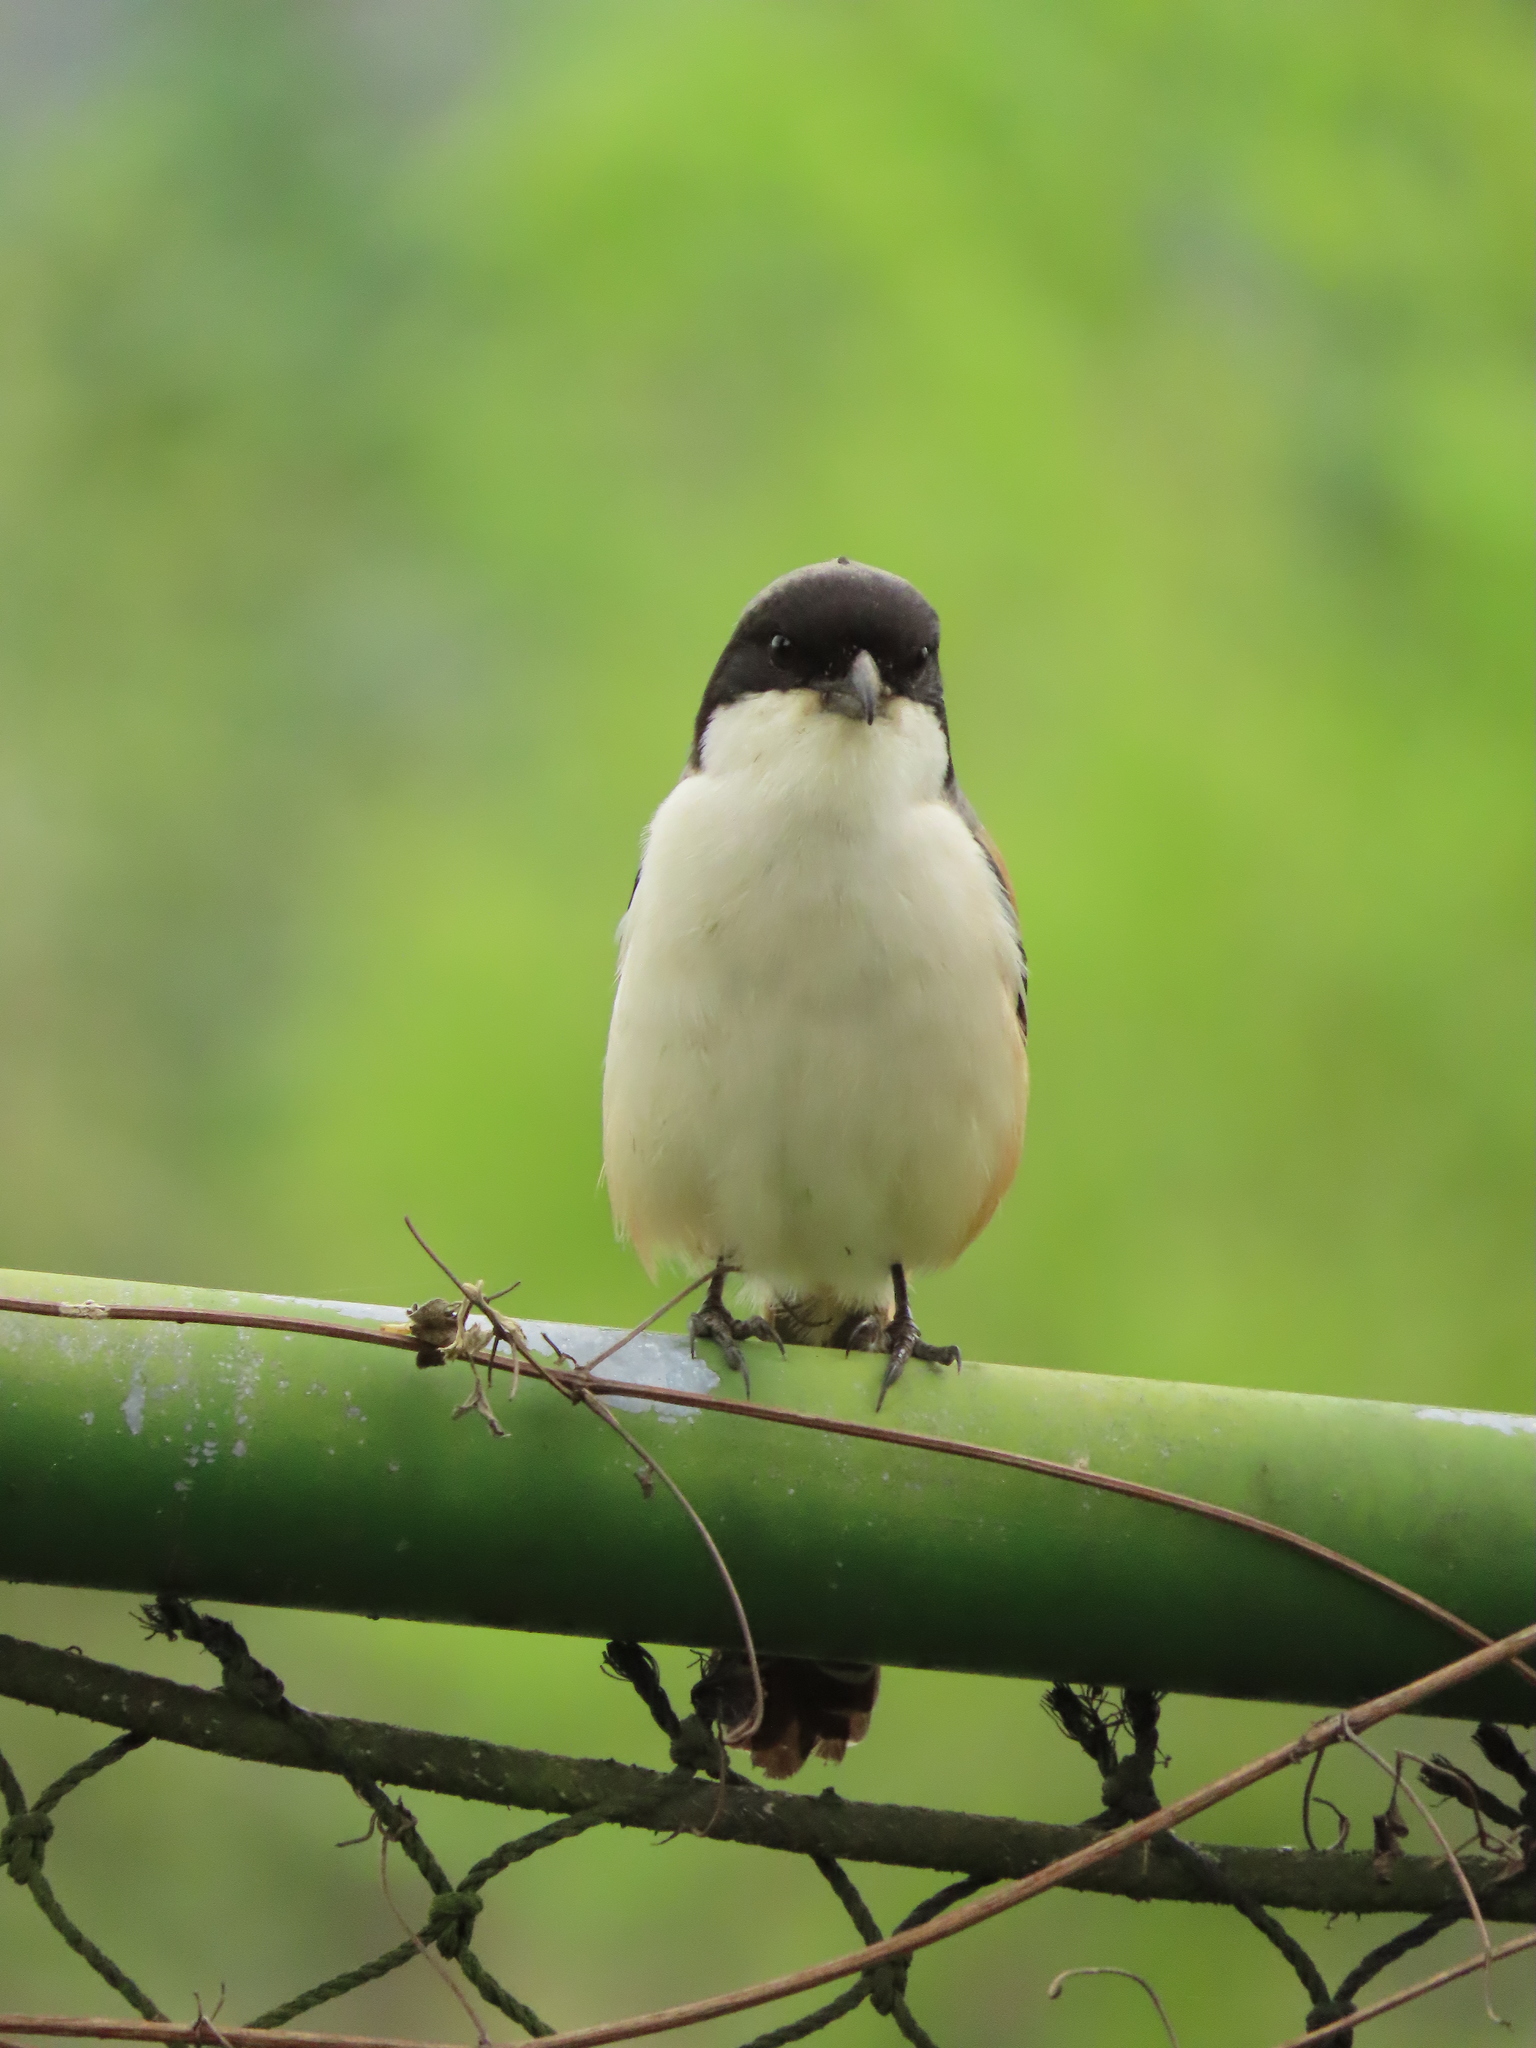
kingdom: Animalia
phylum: Chordata
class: Aves
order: Passeriformes
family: Laniidae
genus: Lanius
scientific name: Lanius schach
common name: Long-tailed shrike
